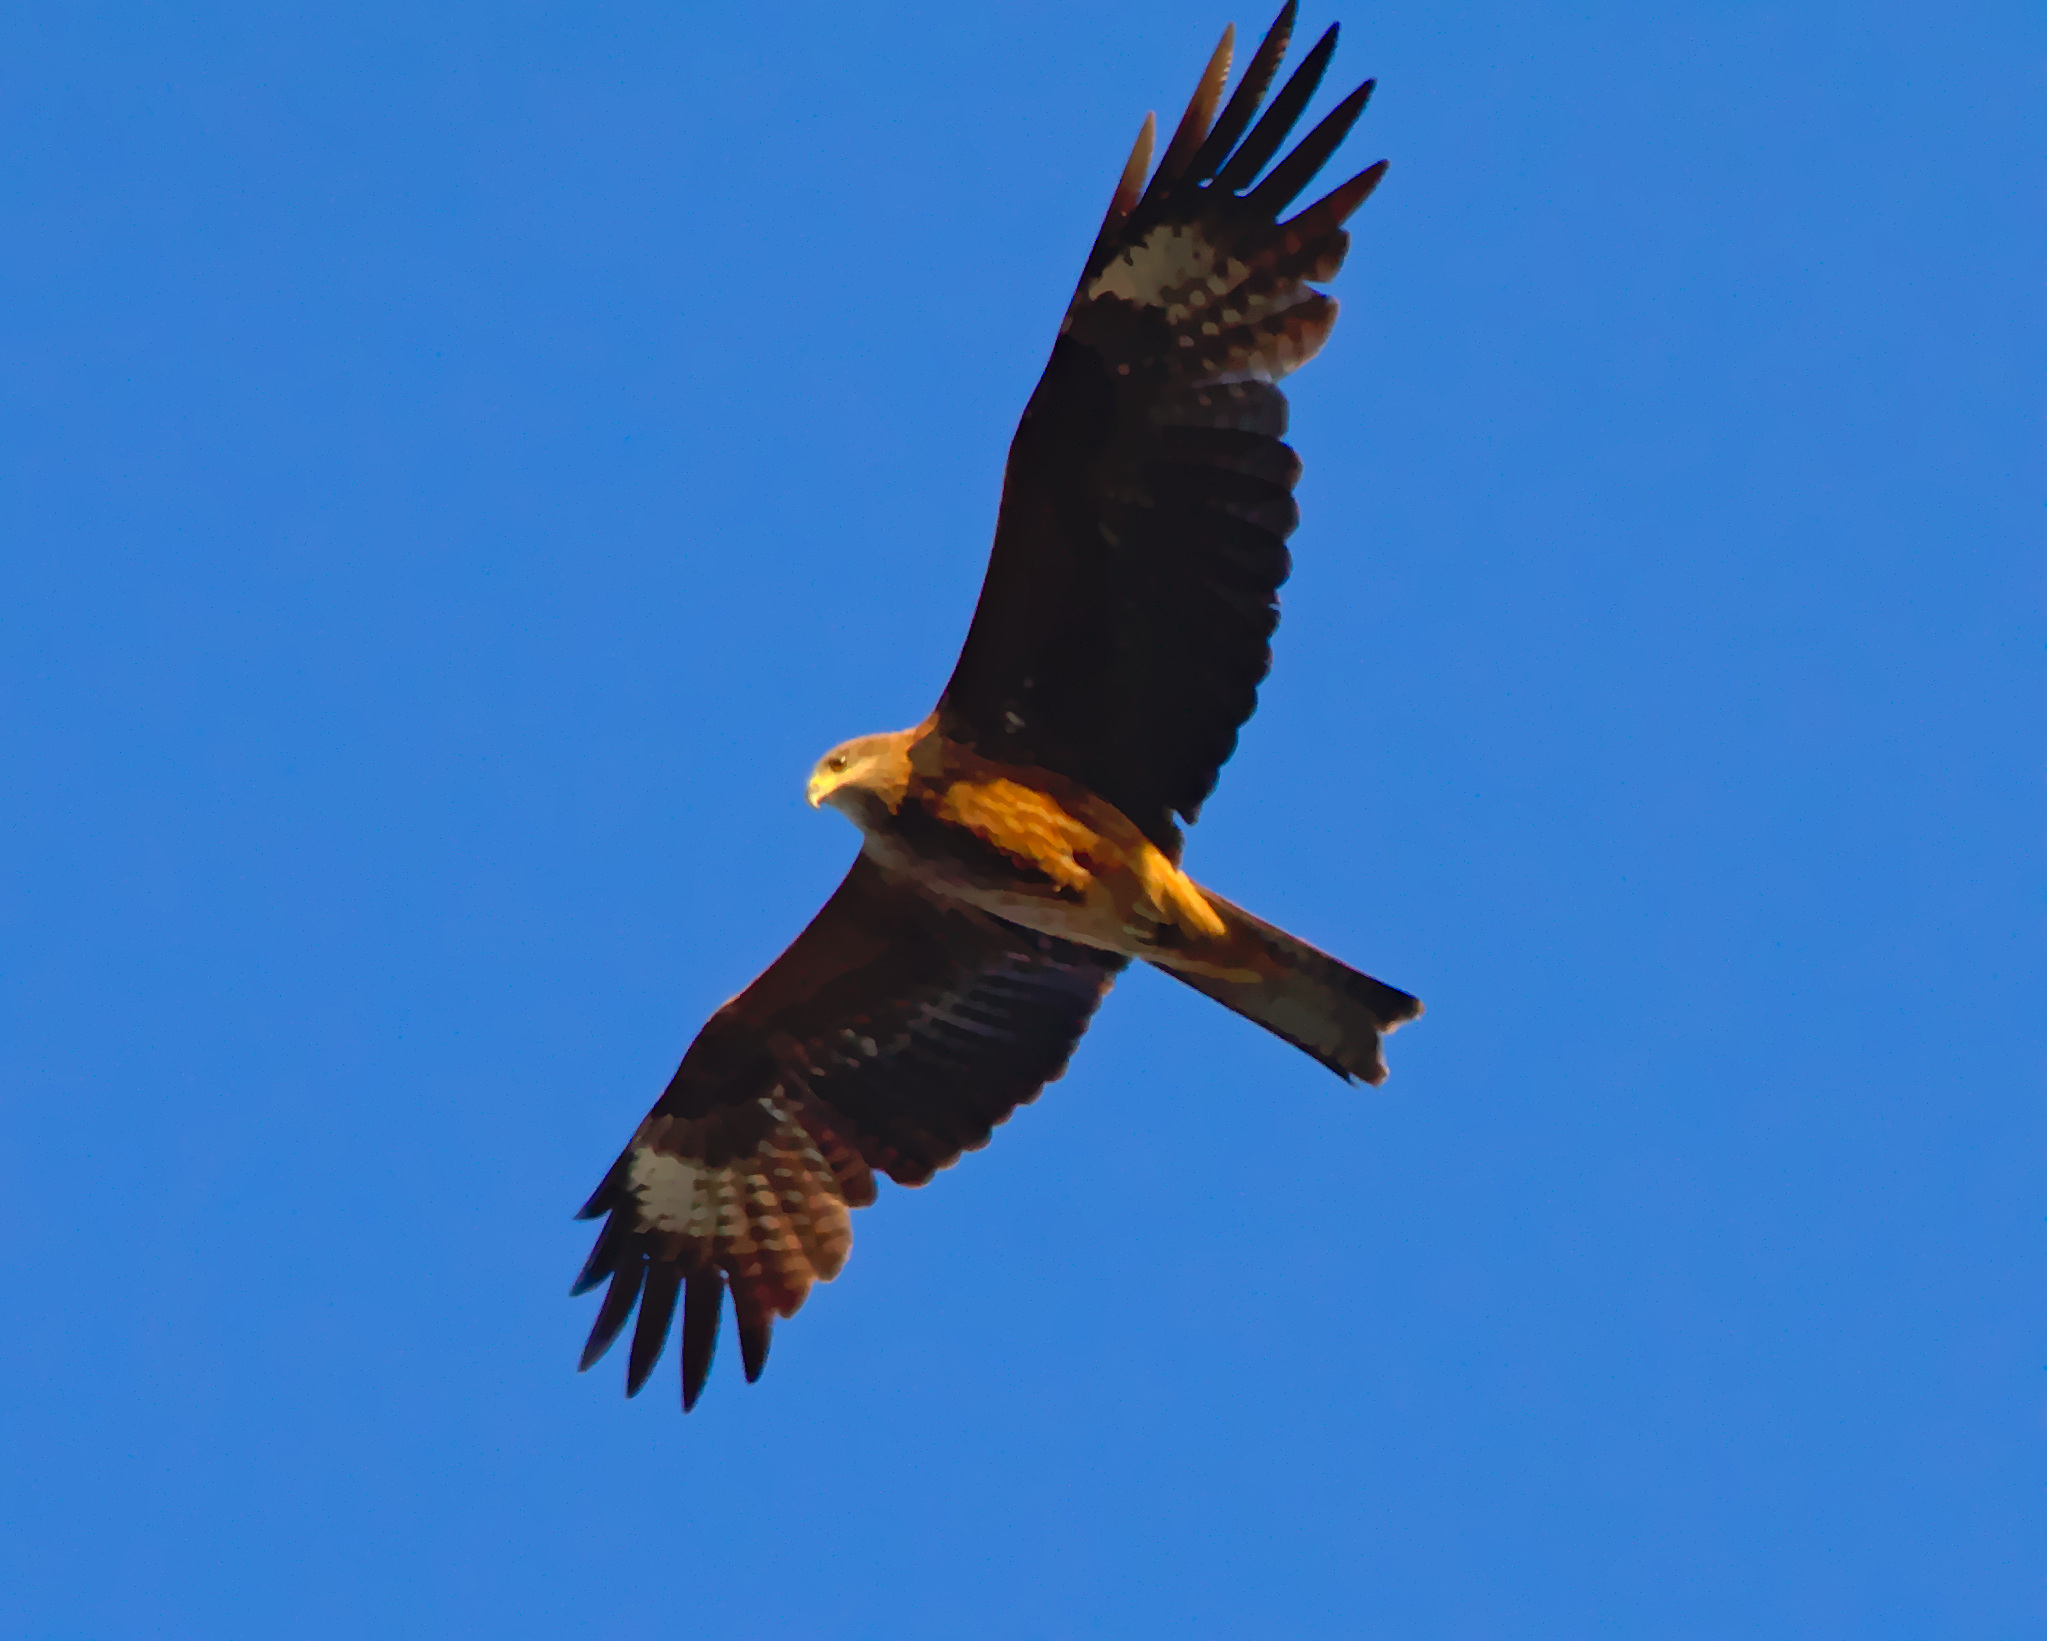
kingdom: Animalia
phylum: Chordata
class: Aves
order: Accipitriformes
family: Accipitridae
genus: Milvus
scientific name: Milvus migrans
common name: Black kite
